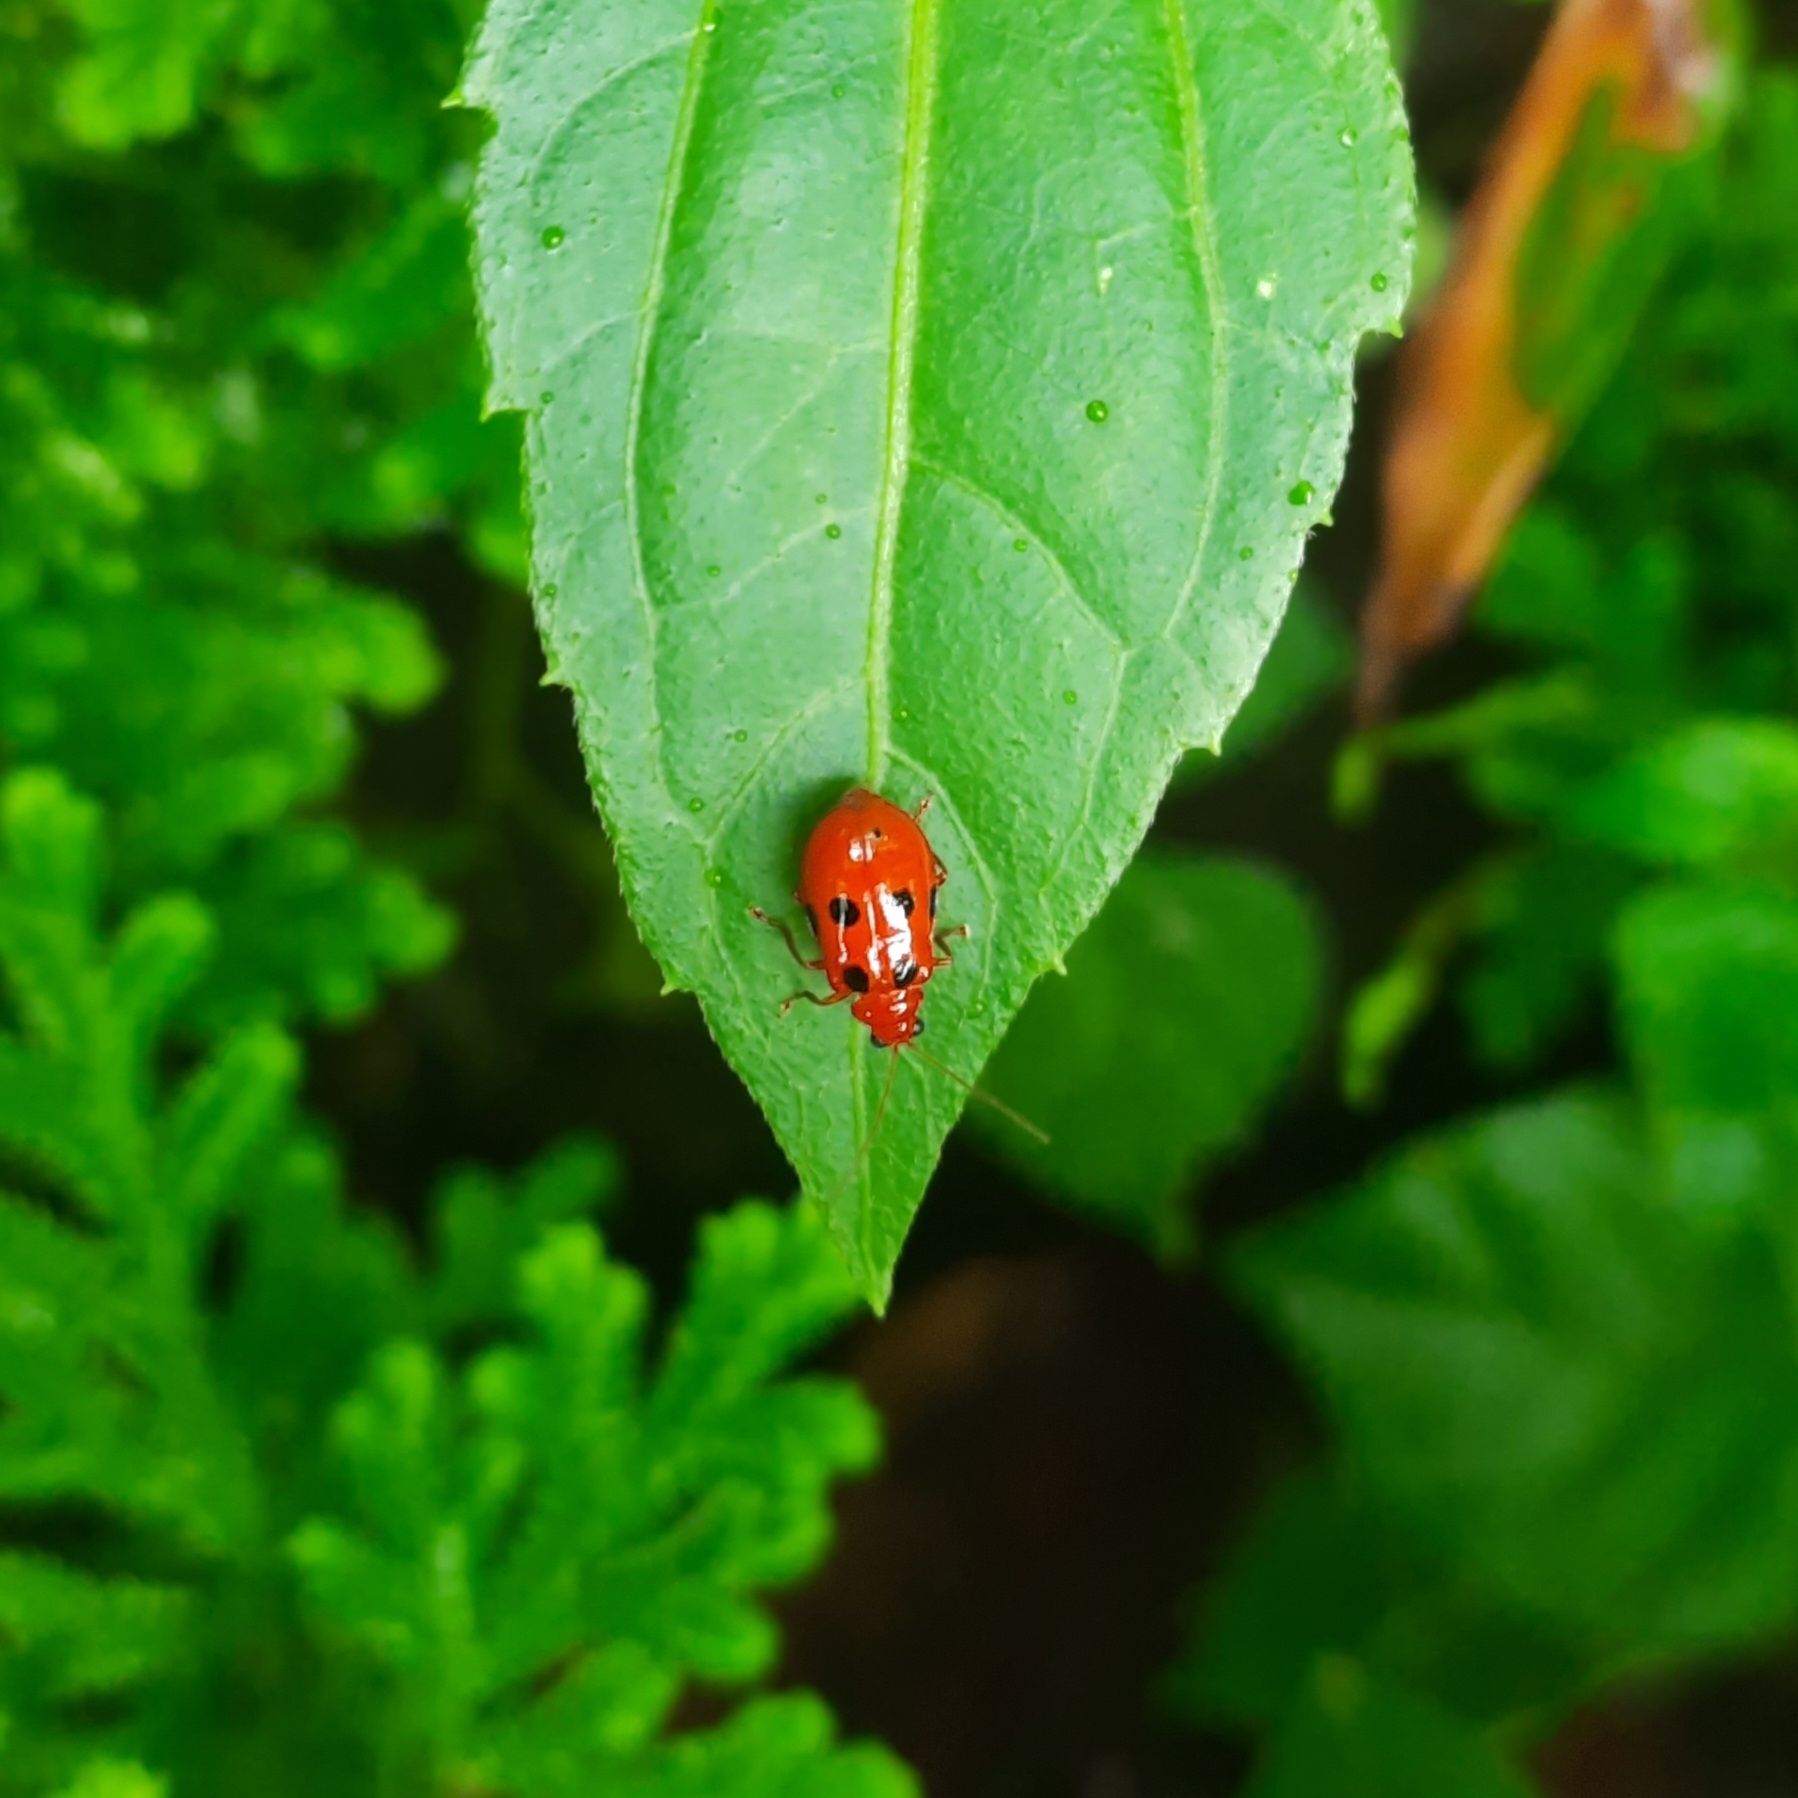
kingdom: Animalia
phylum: Arthropoda
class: Insecta
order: Coleoptera
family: Chrysomelidae
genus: Aulacophora
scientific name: Aulacophora
